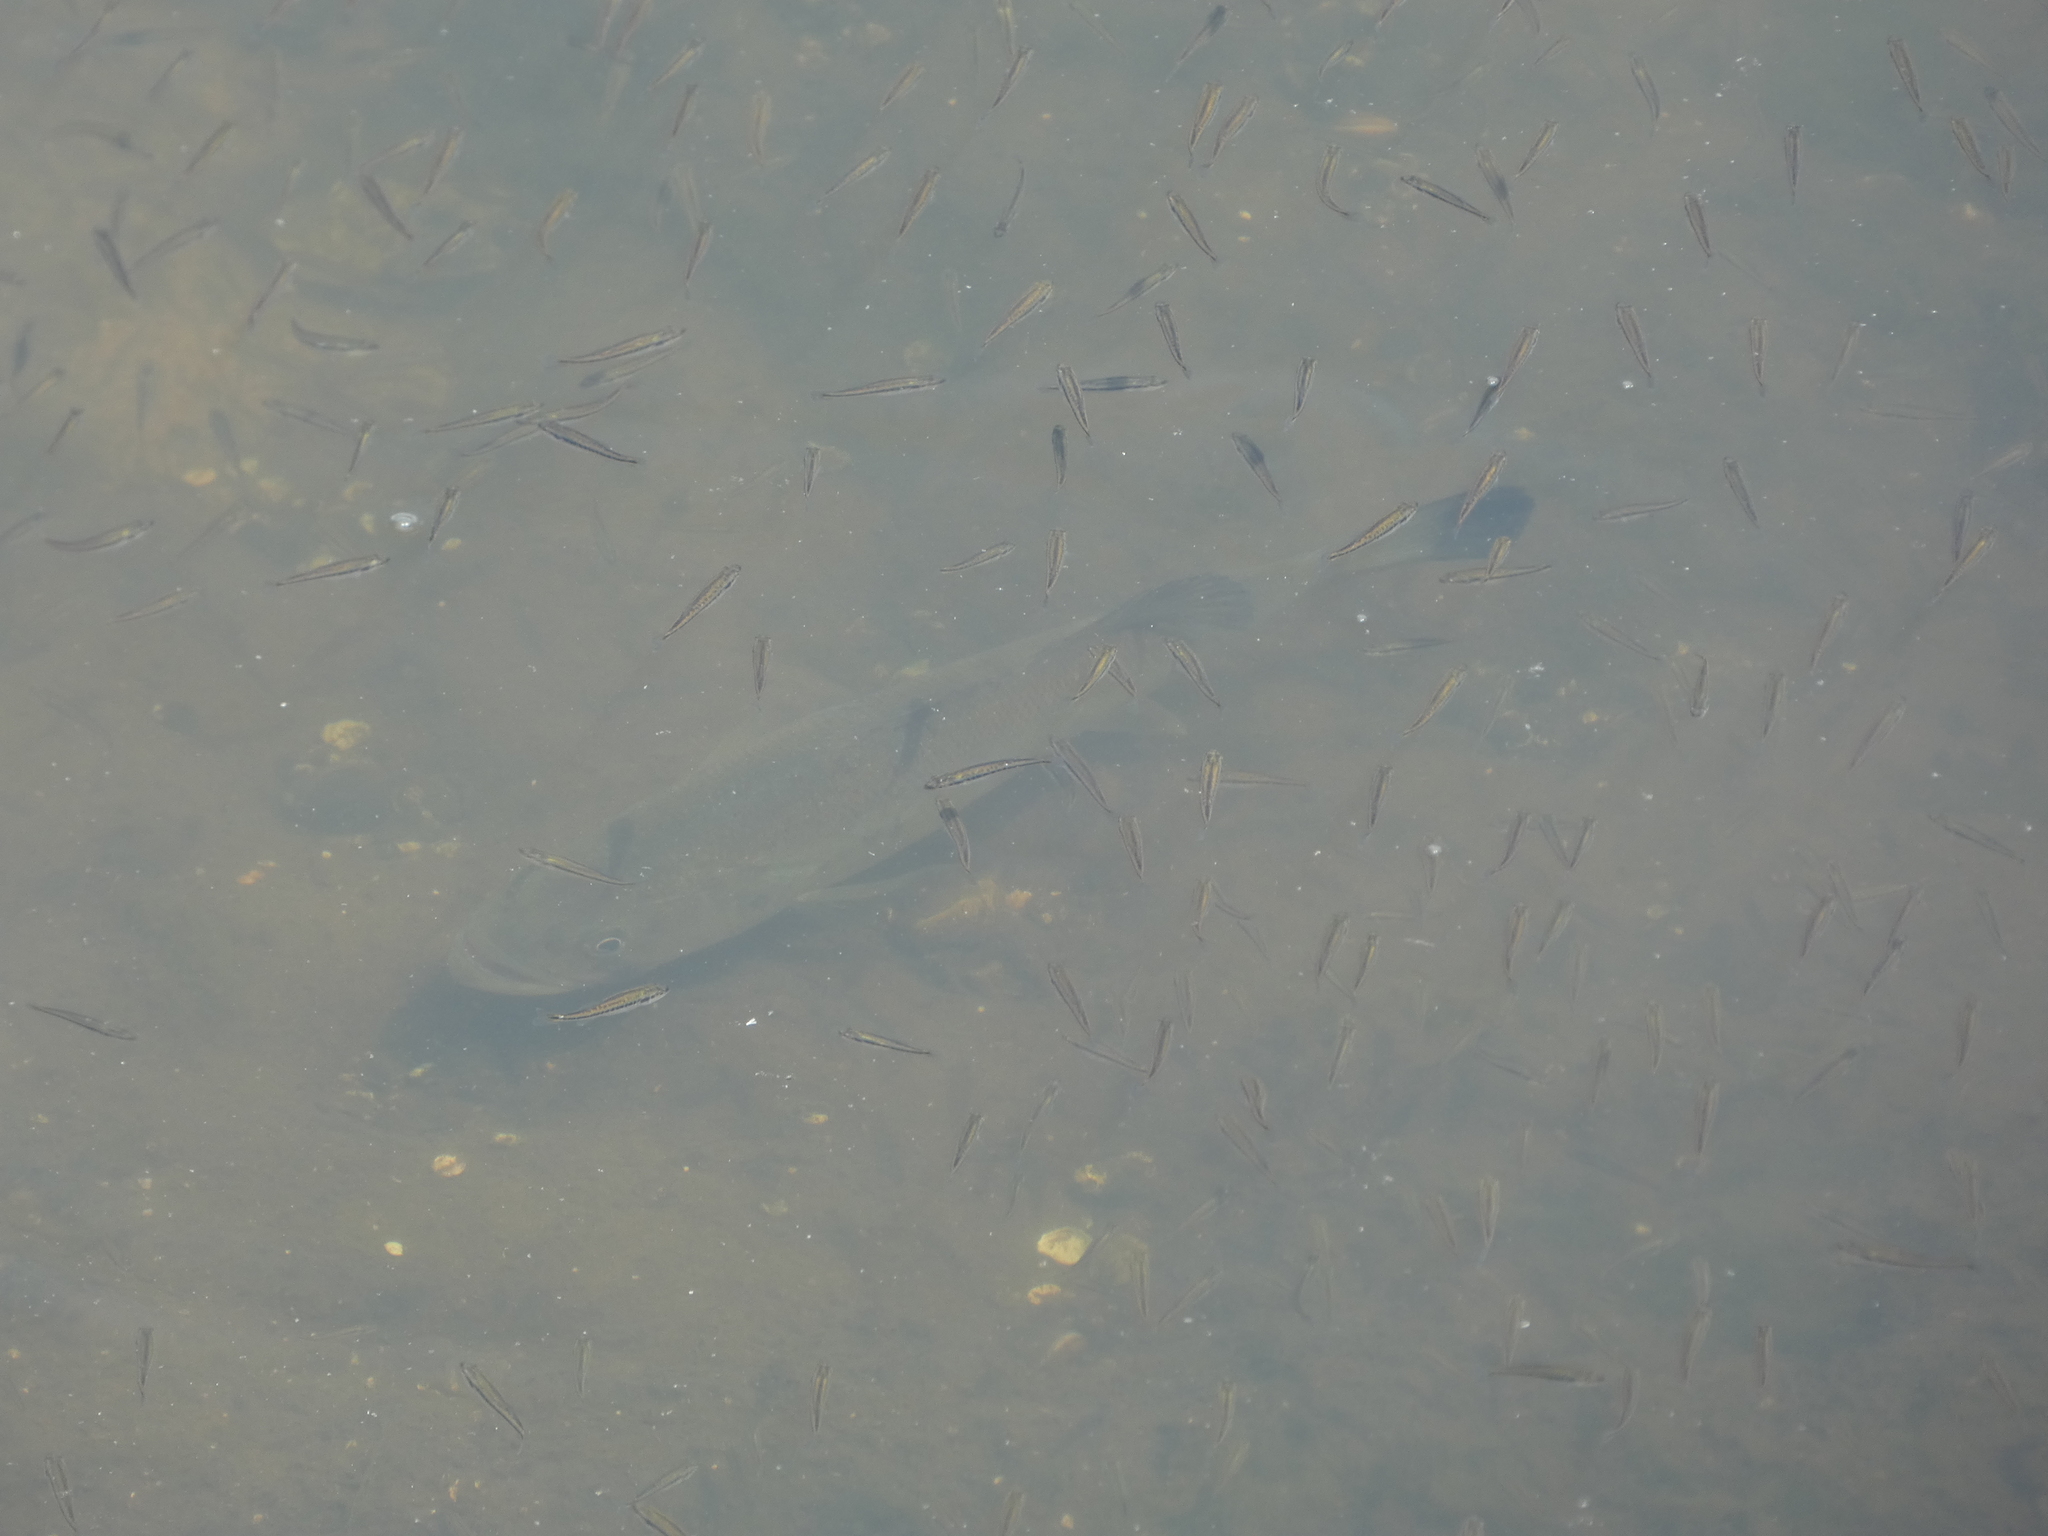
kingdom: Animalia
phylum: Chordata
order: Perciformes
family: Centrarchidae
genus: Micropterus
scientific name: Micropterus salmoides
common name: Largemouth bass
